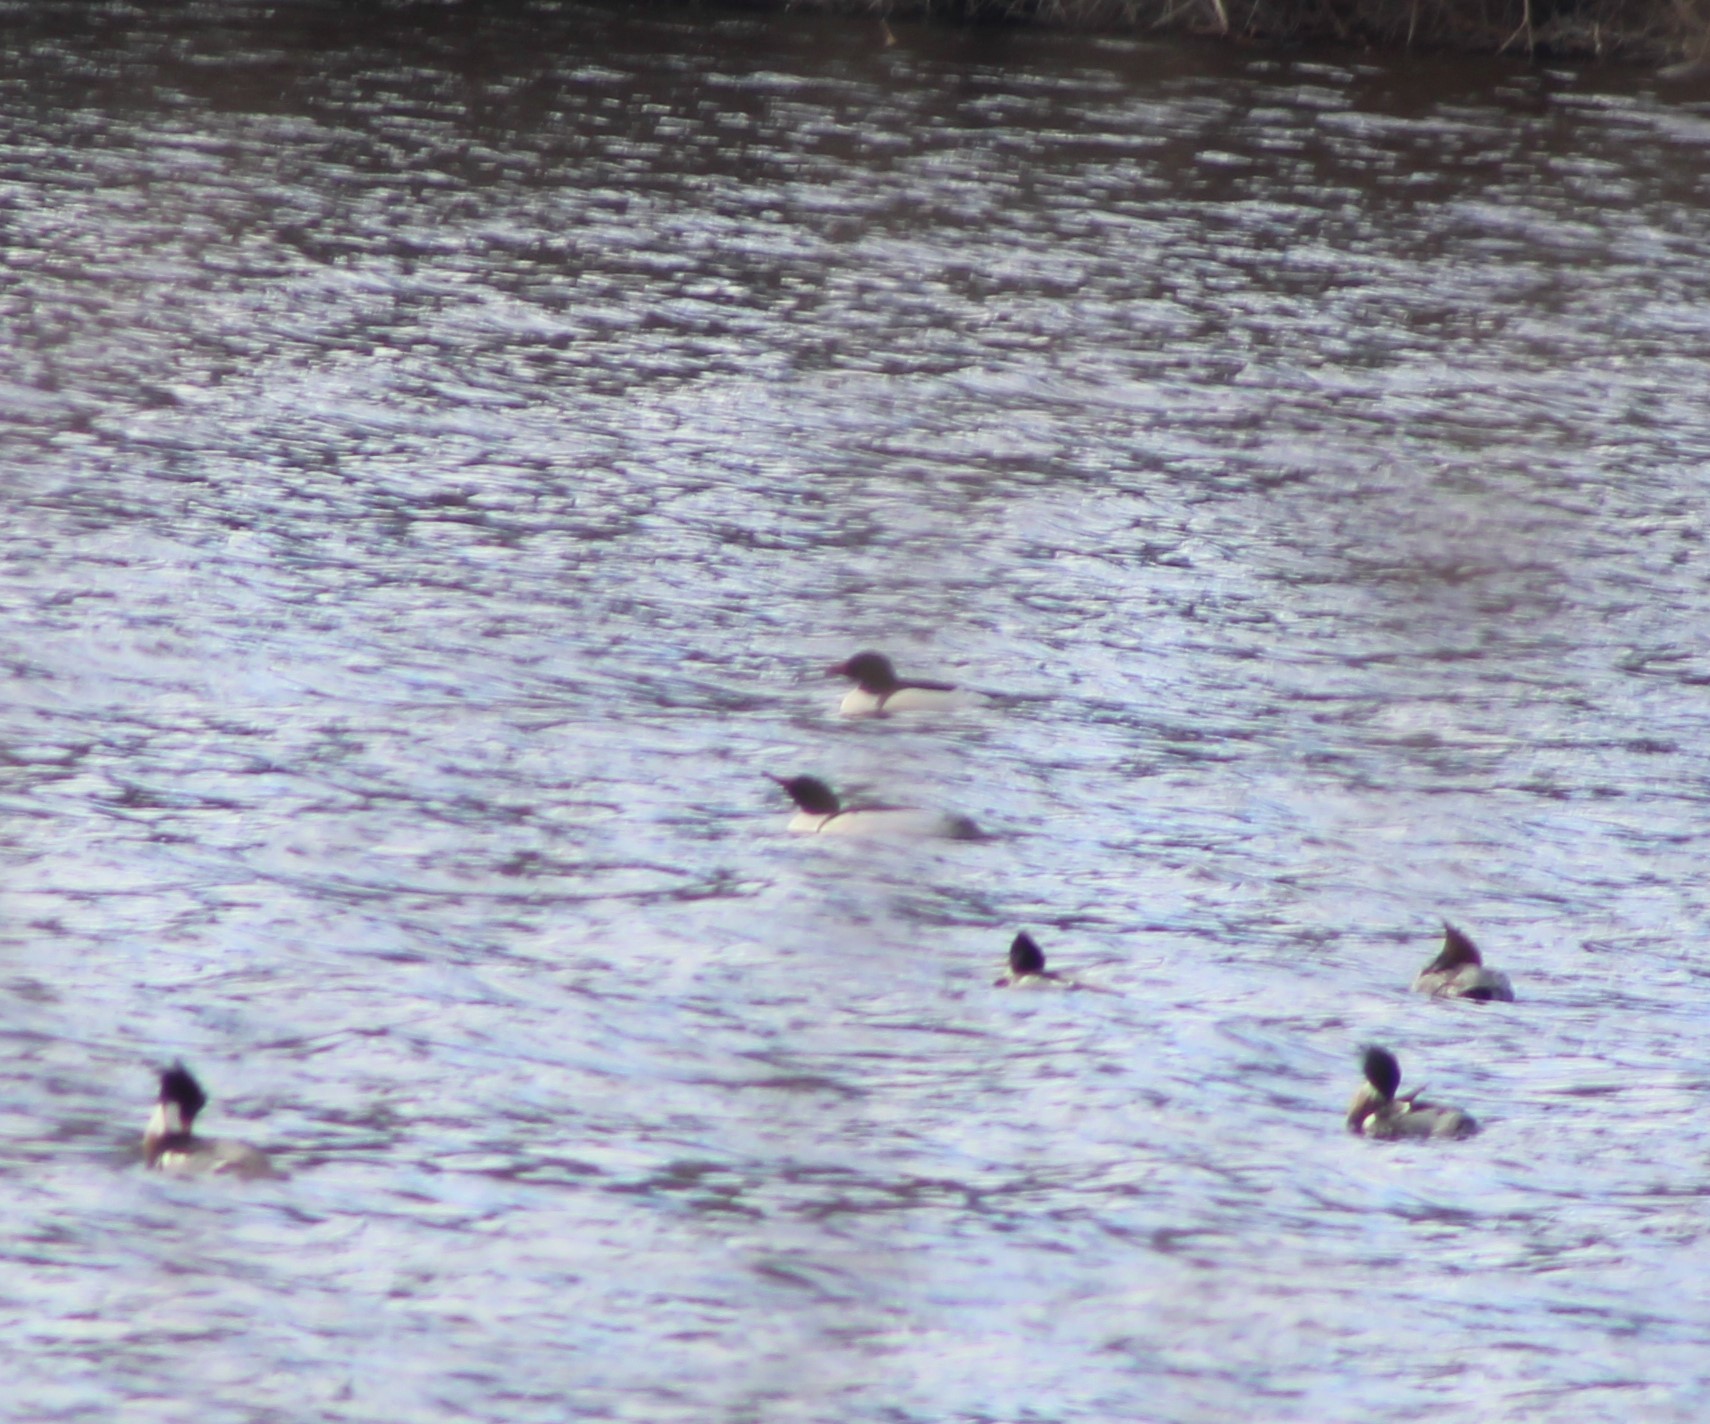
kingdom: Animalia
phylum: Chordata
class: Aves
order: Anseriformes
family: Anatidae
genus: Mergus
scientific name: Mergus merganser
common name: Common merganser
